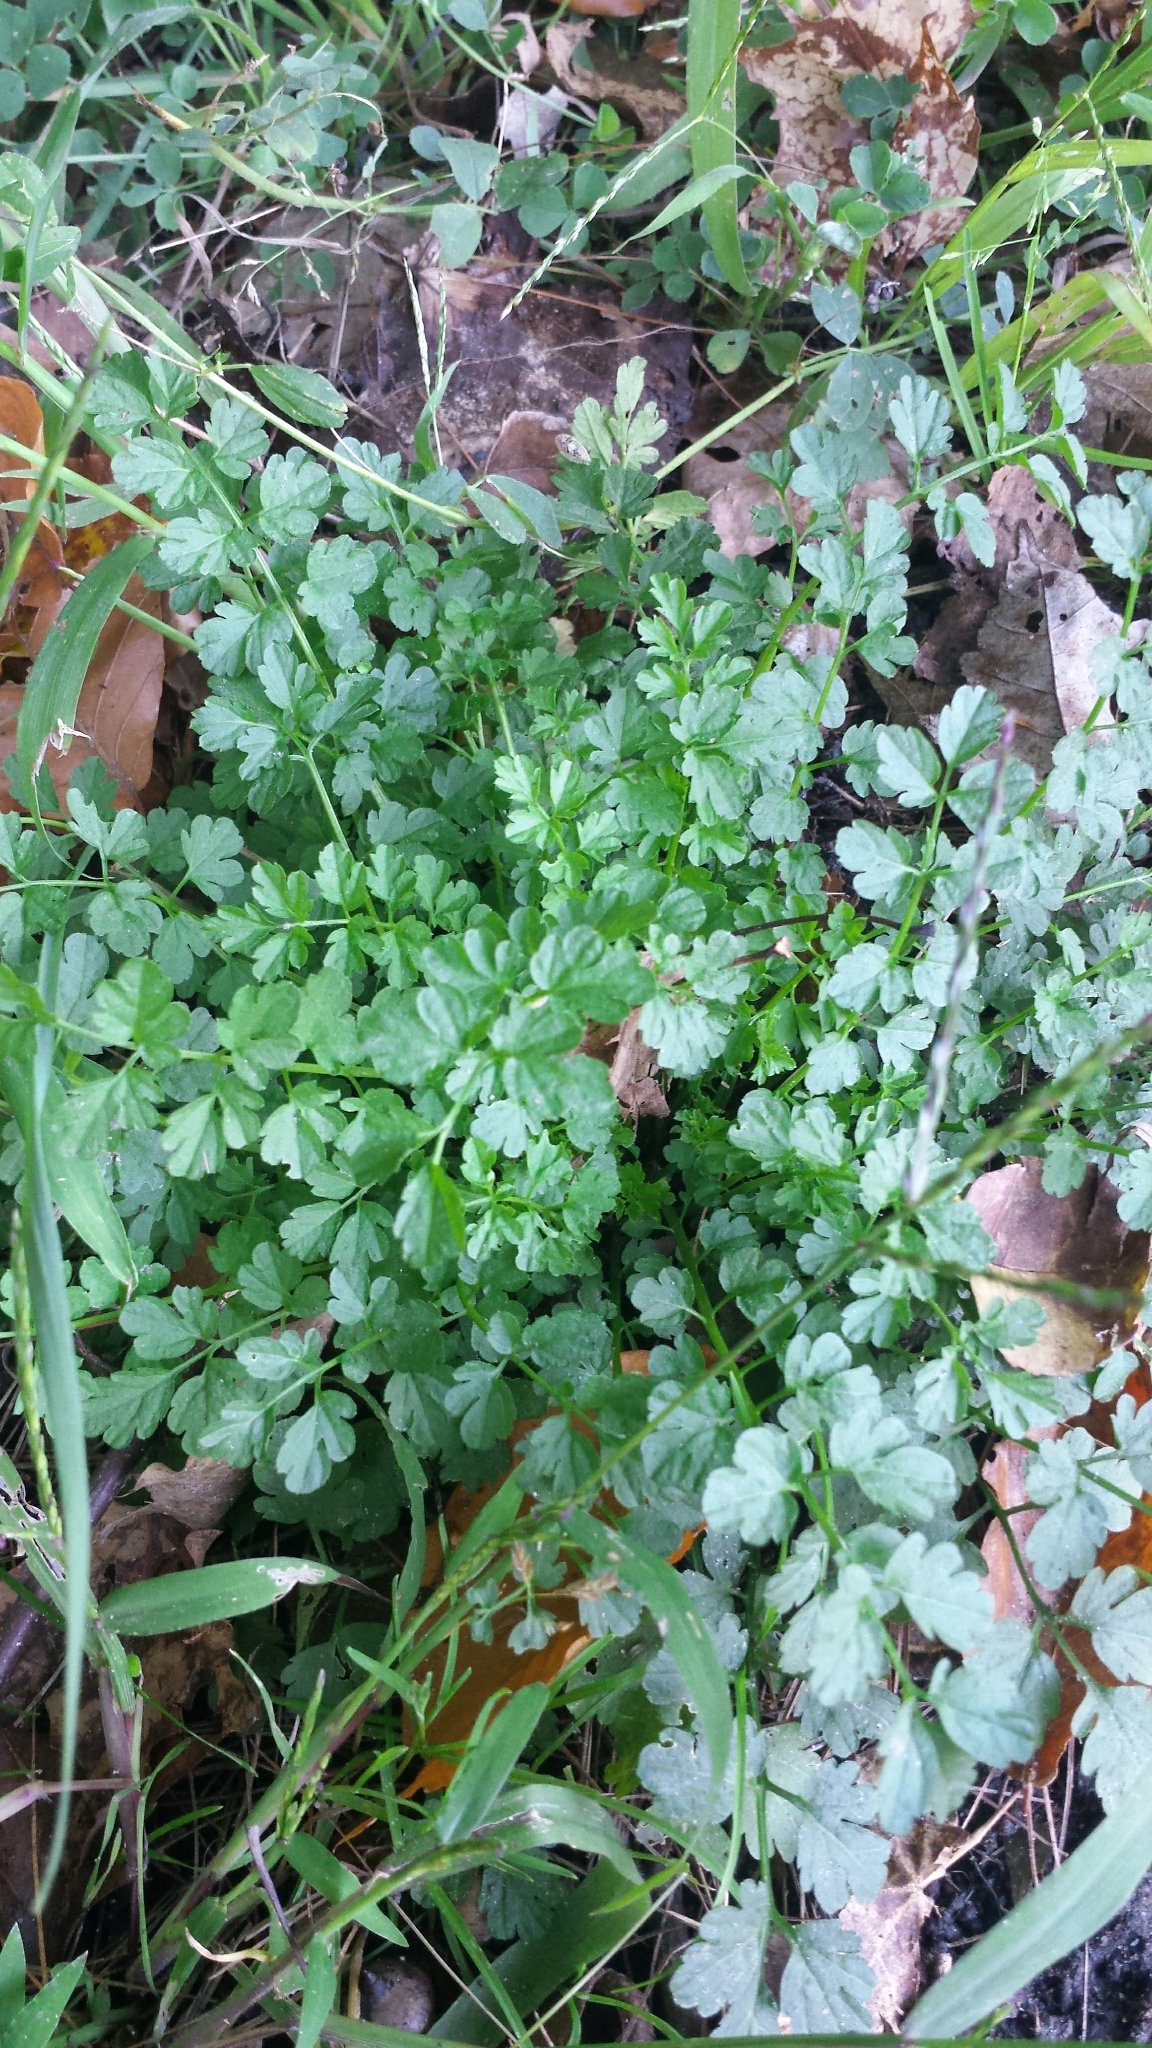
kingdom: Plantae
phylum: Tracheophyta
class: Magnoliopsida
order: Brassicales
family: Brassicaceae
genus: Cardamine
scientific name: Cardamine impatiens
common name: Narrow-leaved bitter-cress
